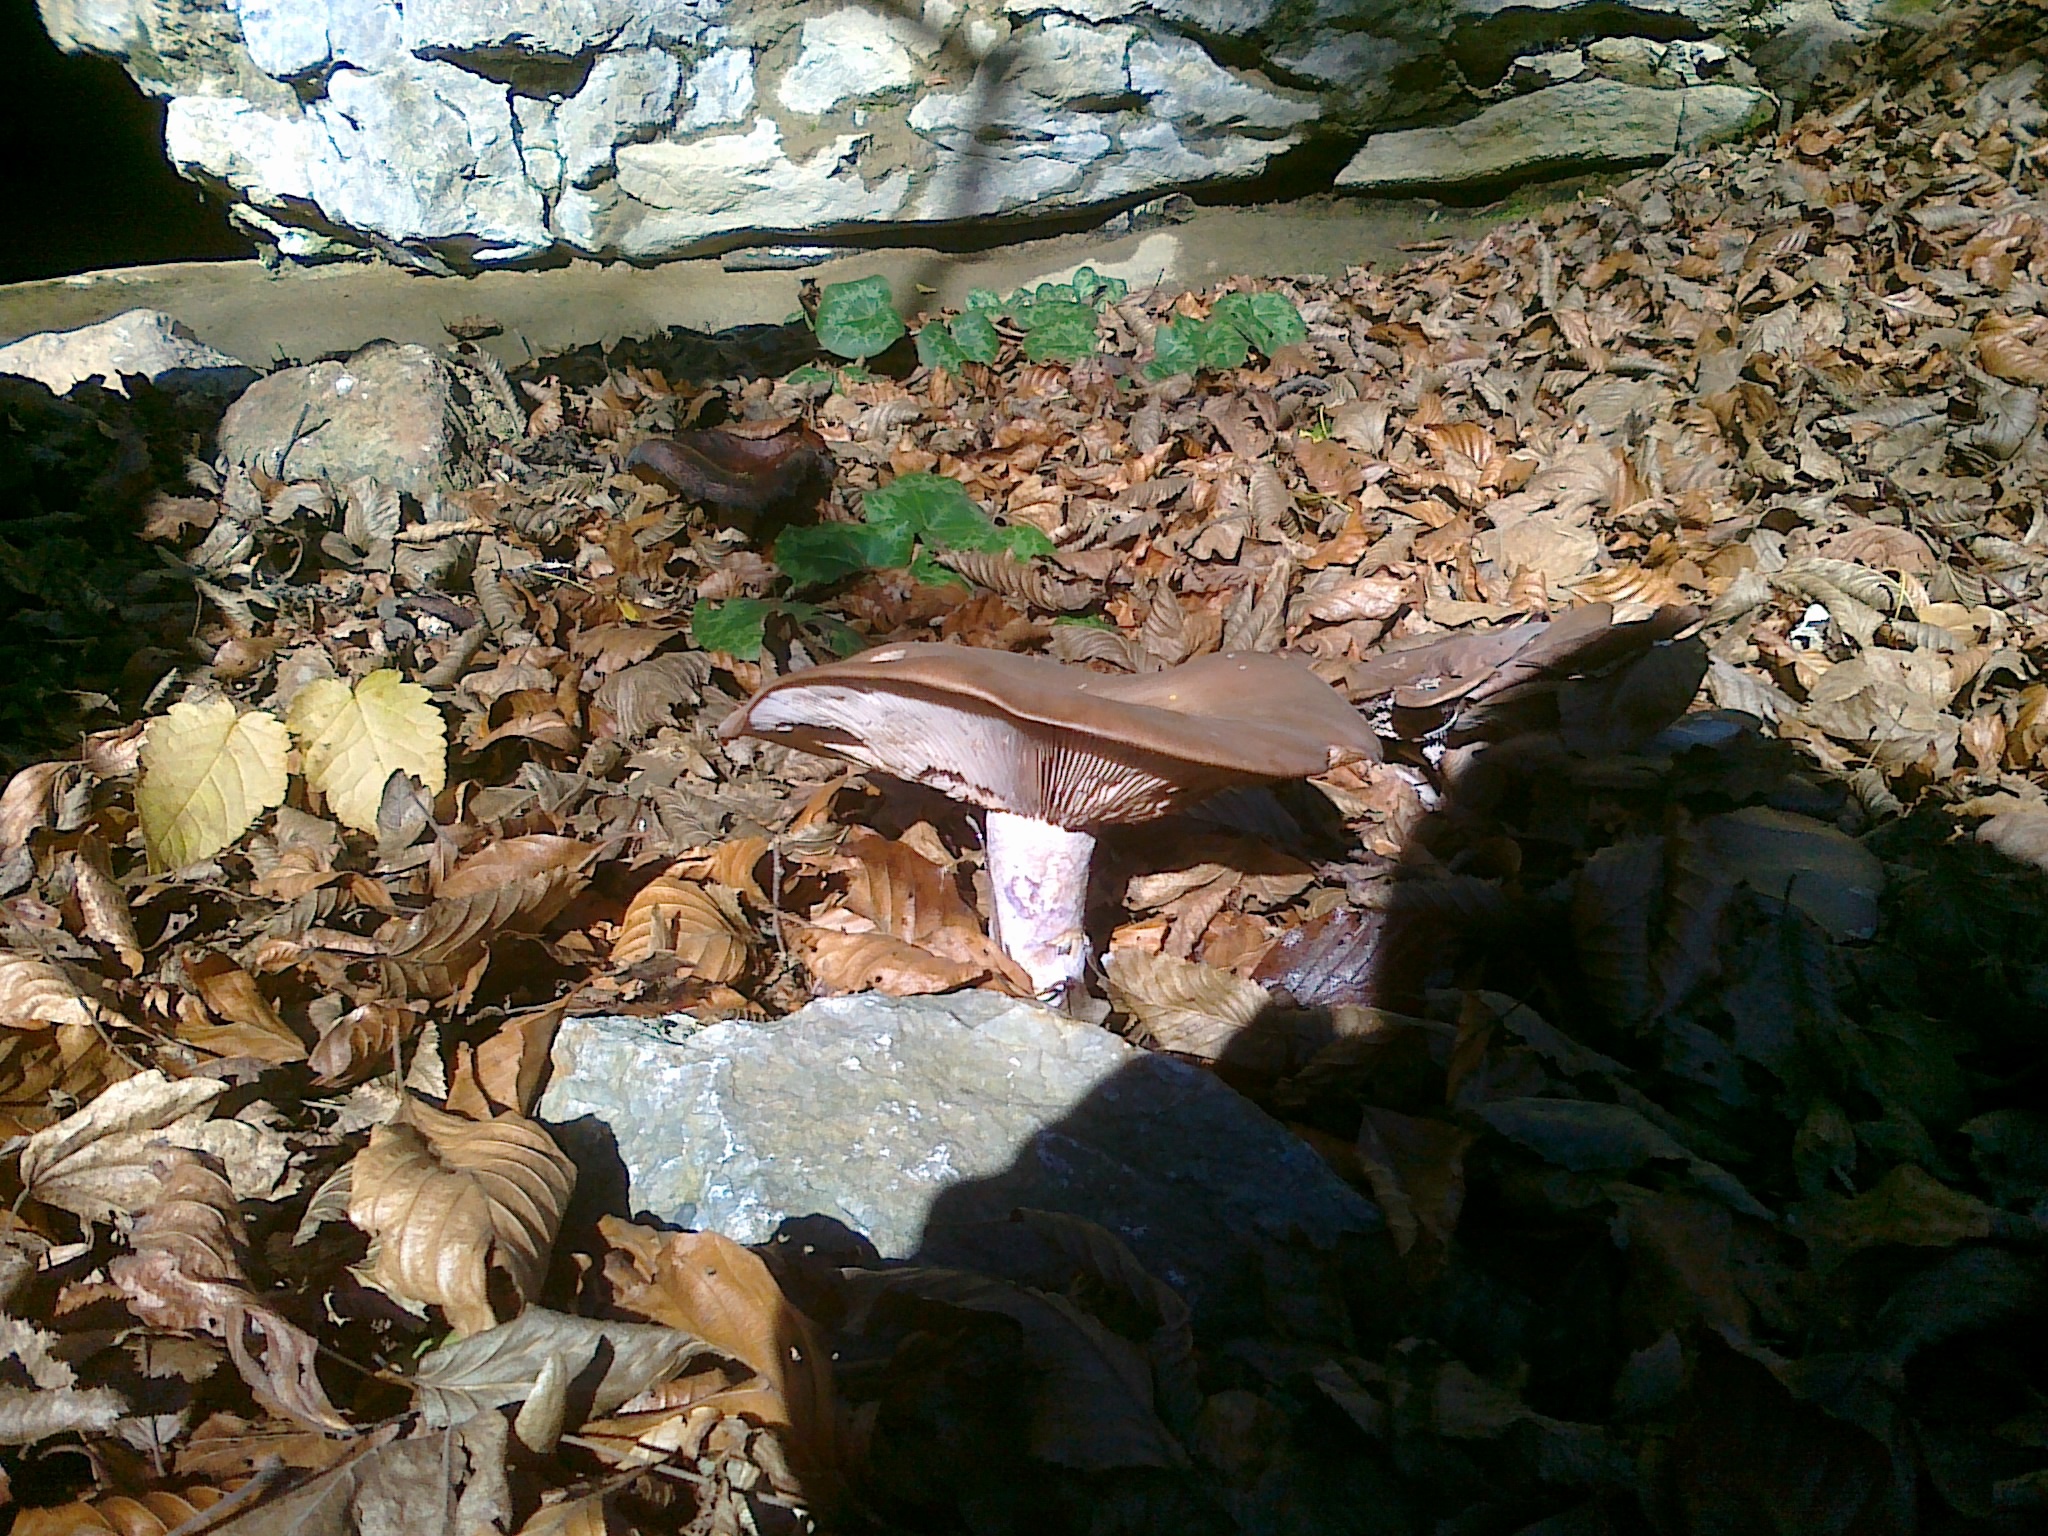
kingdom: Fungi
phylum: Basidiomycota
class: Agaricomycetes
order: Agaricales
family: Tricholomataceae
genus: Collybia
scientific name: Collybia
